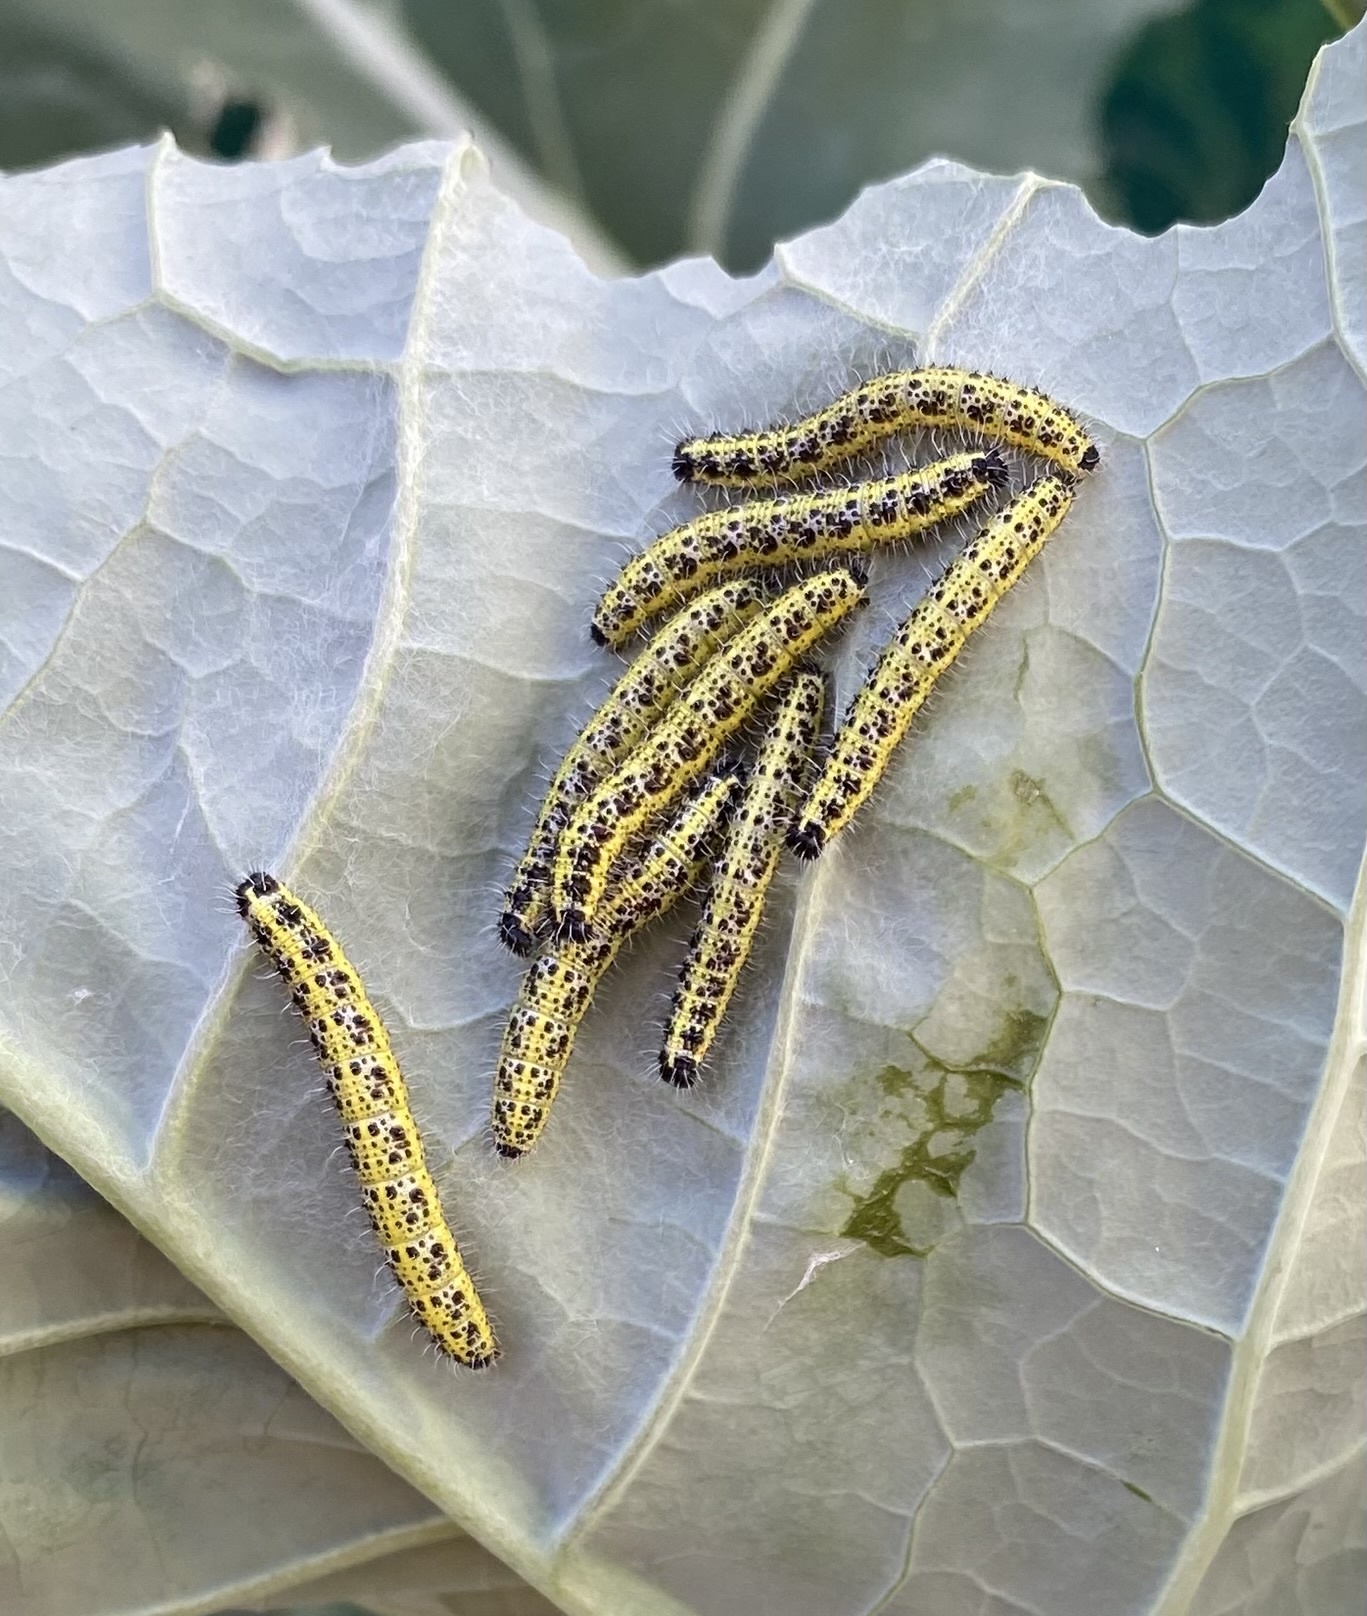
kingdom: Animalia
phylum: Arthropoda
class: Insecta
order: Lepidoptera
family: Pieridae
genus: Pieris
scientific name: Pieris brassicae
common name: Large white
